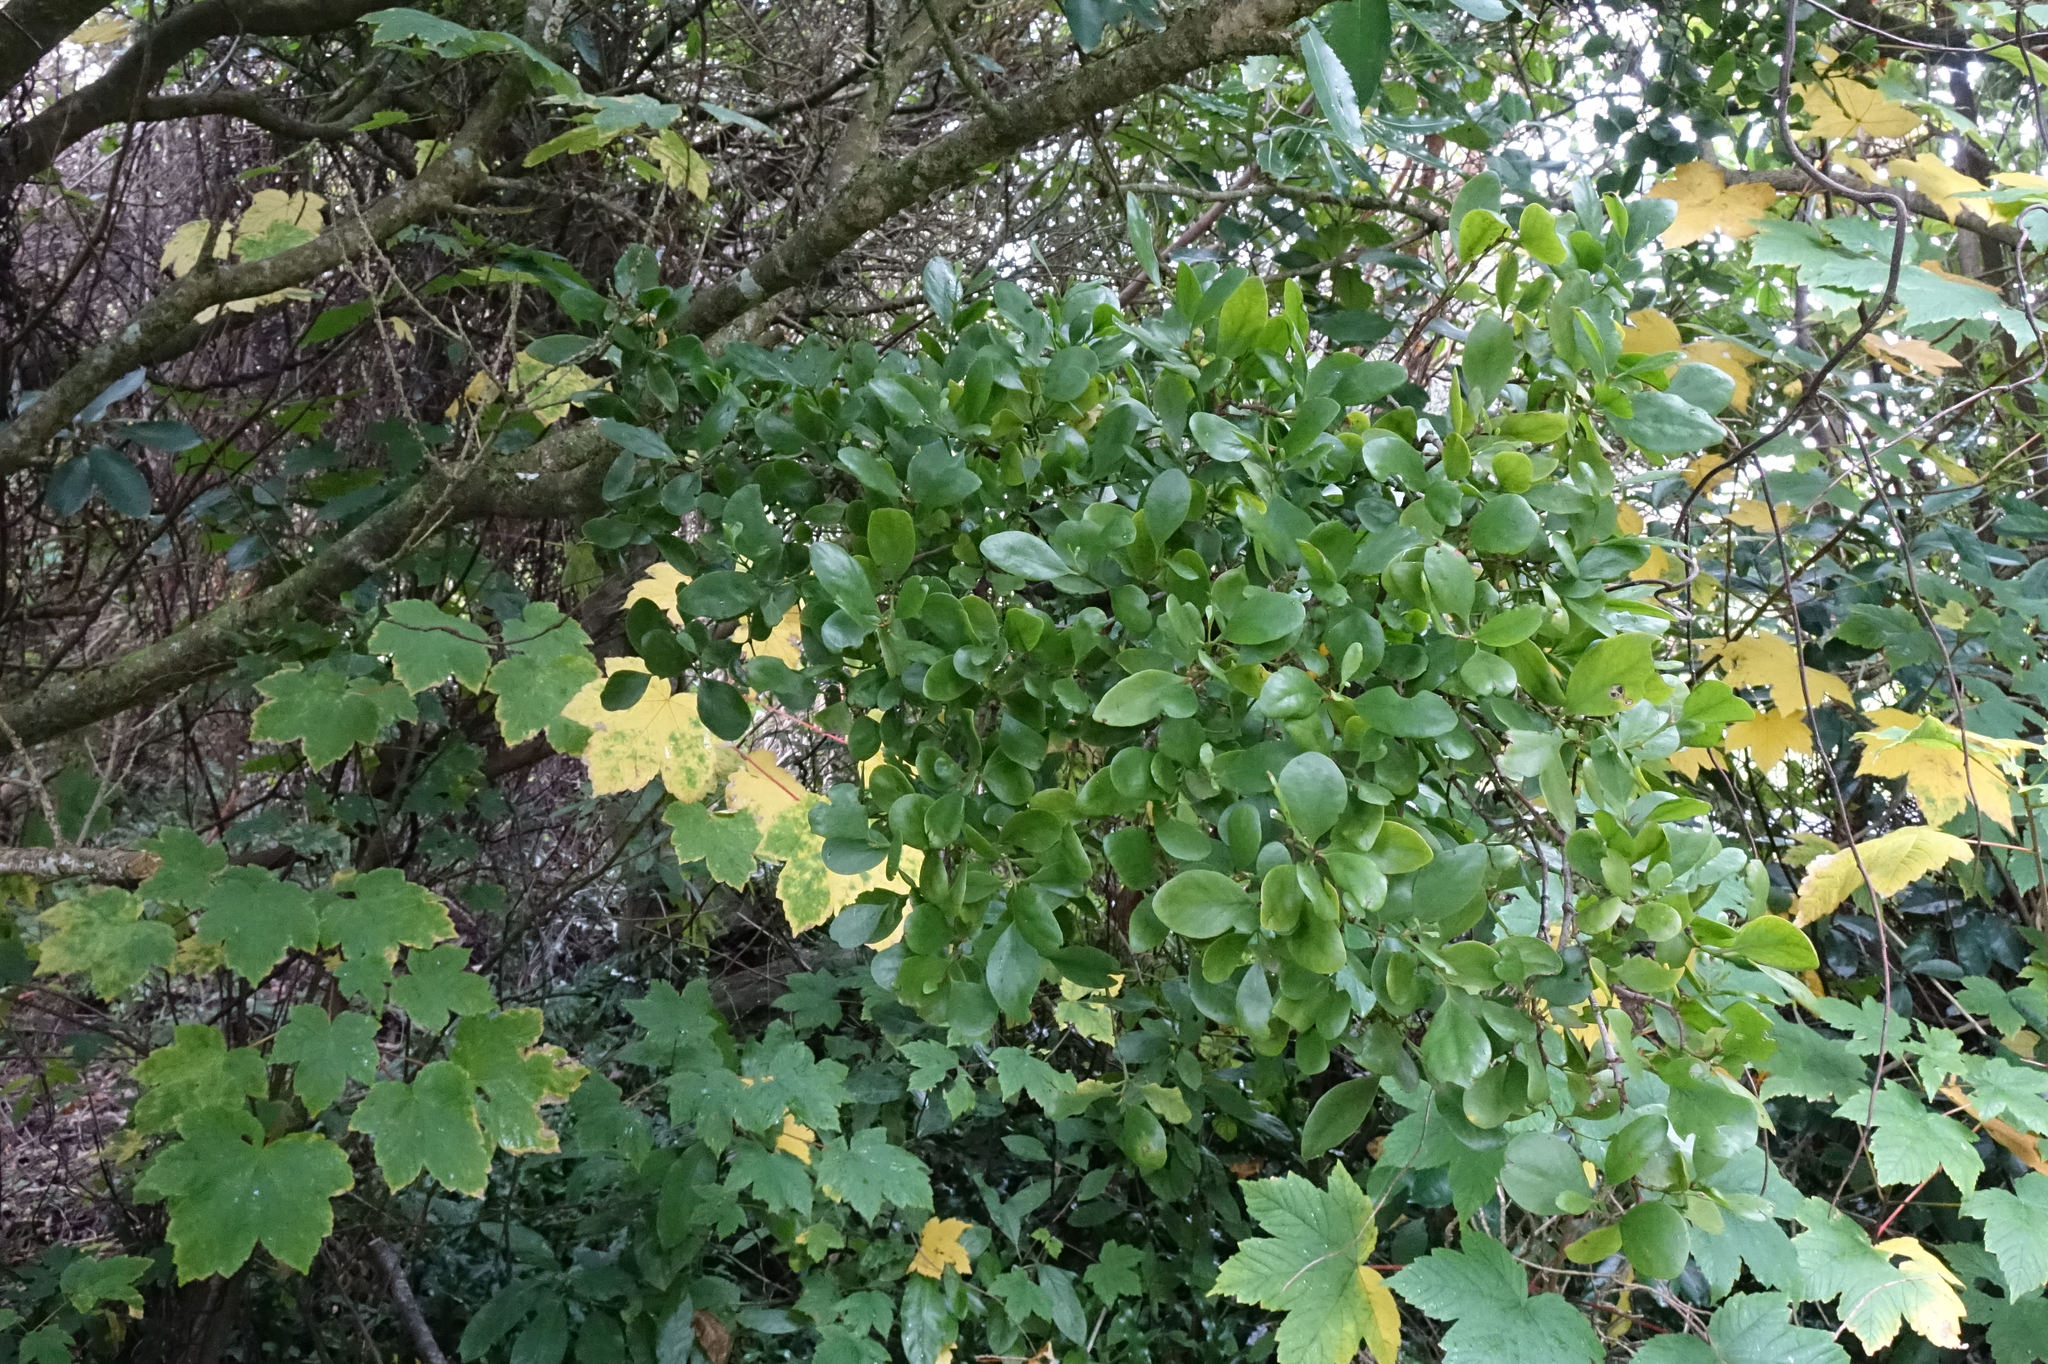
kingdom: Plantae
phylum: Tracheophyta
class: Magnoliopsida
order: Santalales
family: Loranthaceae
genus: Ileostylus
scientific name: Ileostylus micranthus
